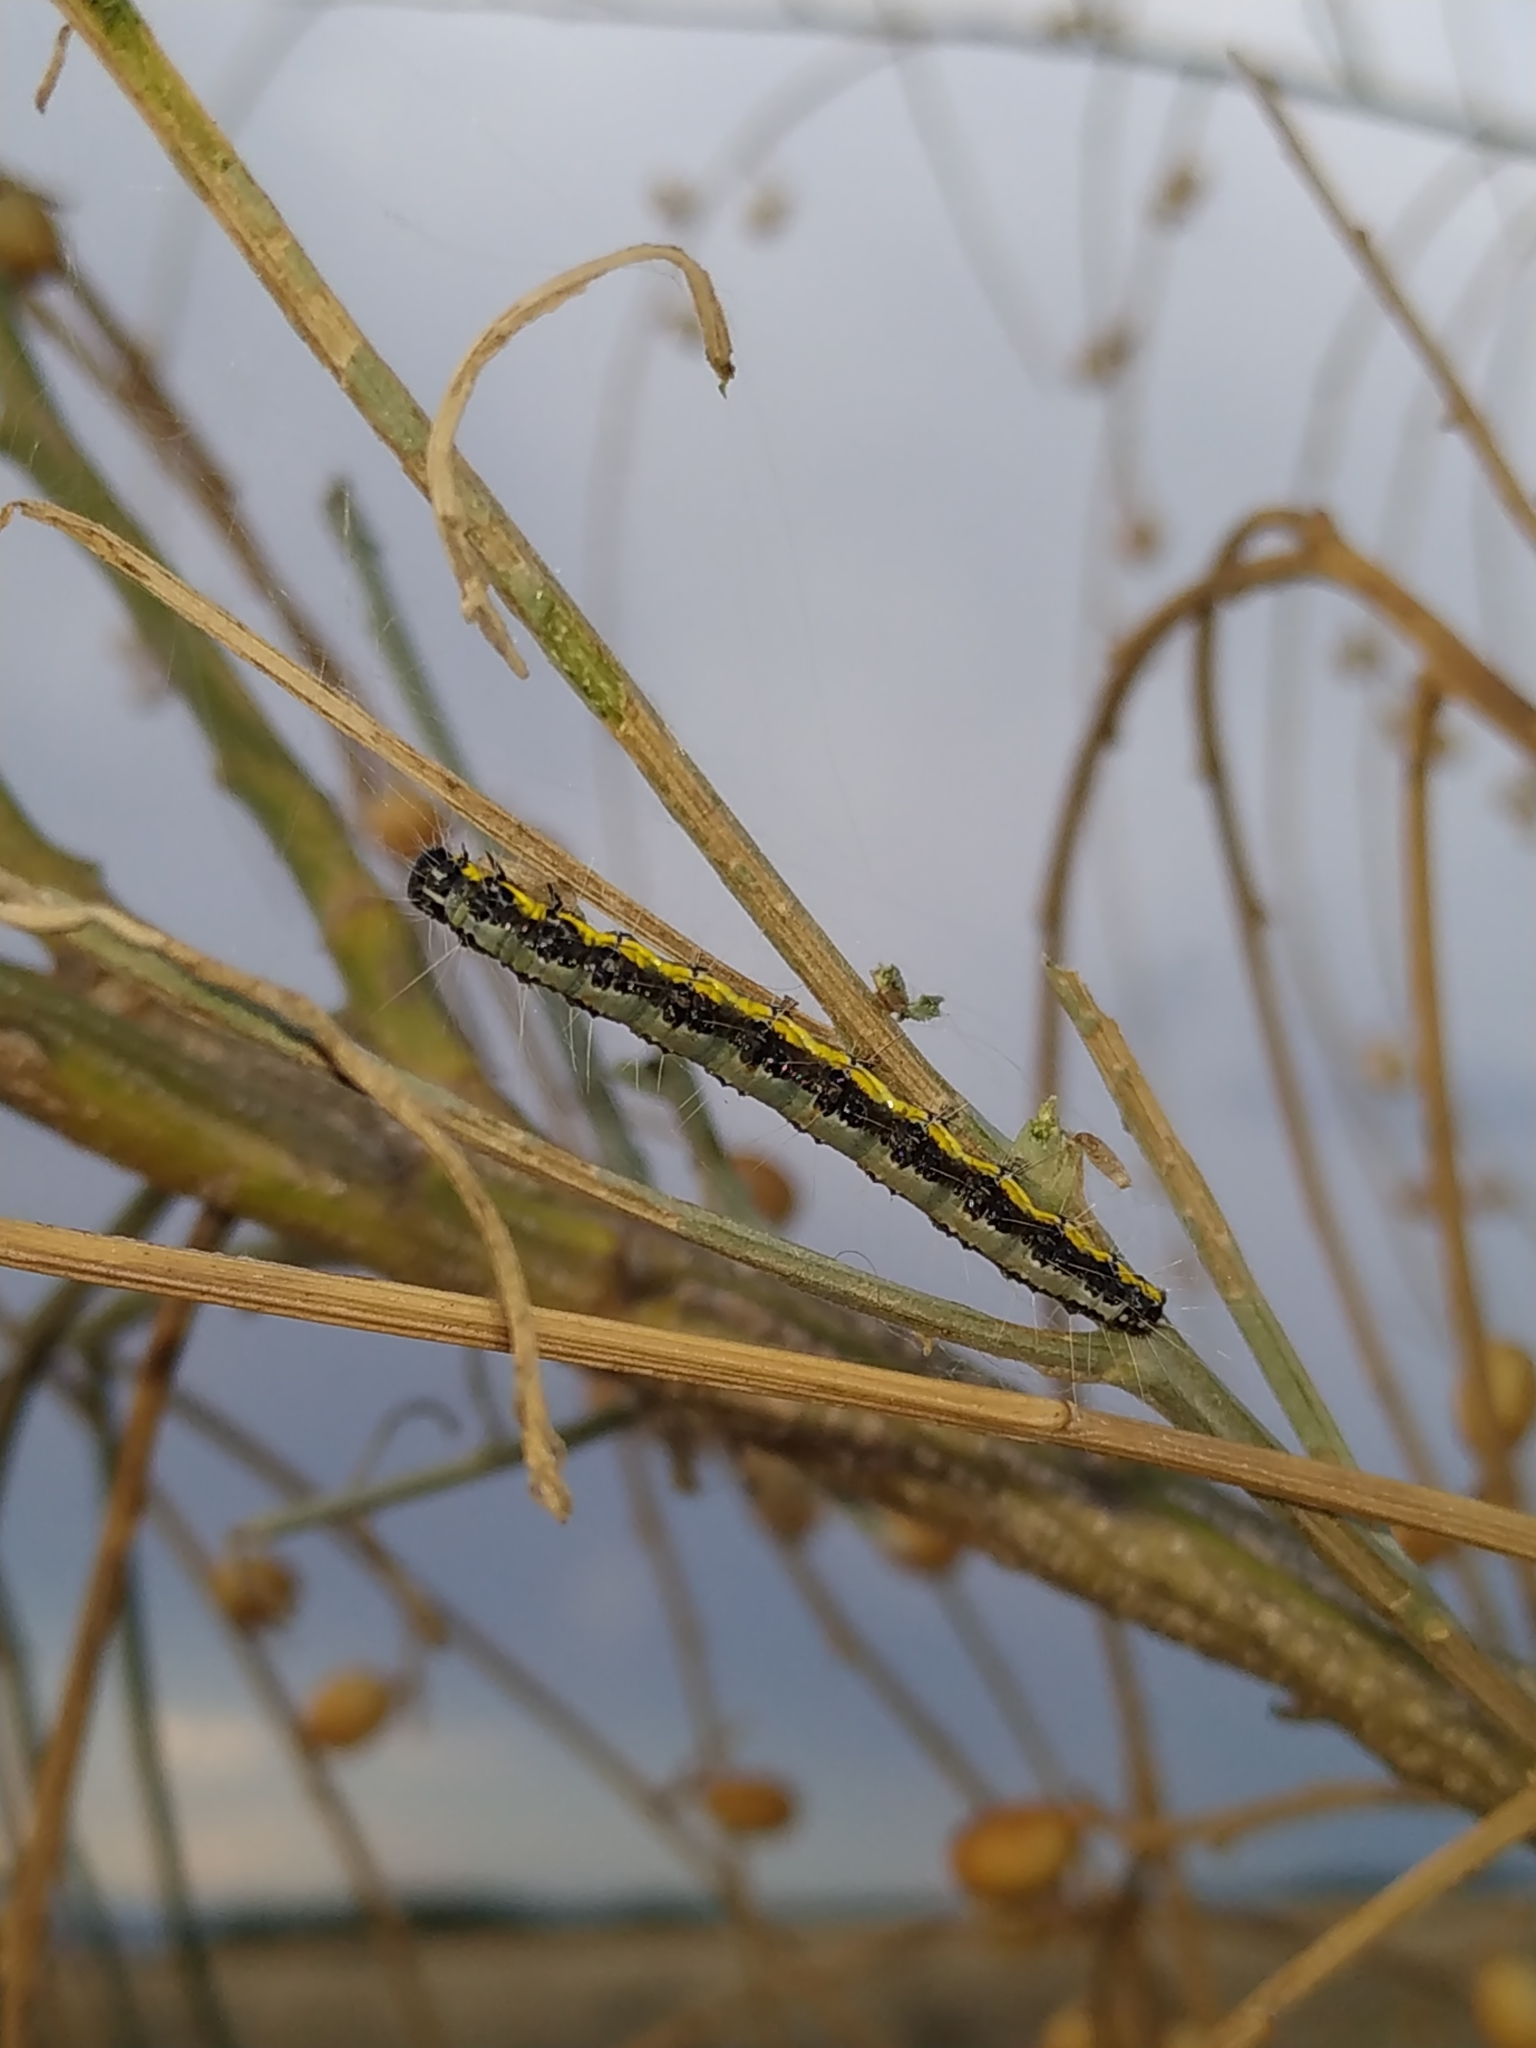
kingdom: Animalia
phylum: Arthropoda
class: Insecta
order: Lepidoptera
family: Crambidae
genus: Uresiphita
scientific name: Uresiphita gilvata
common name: Yellow-underwing pearl
